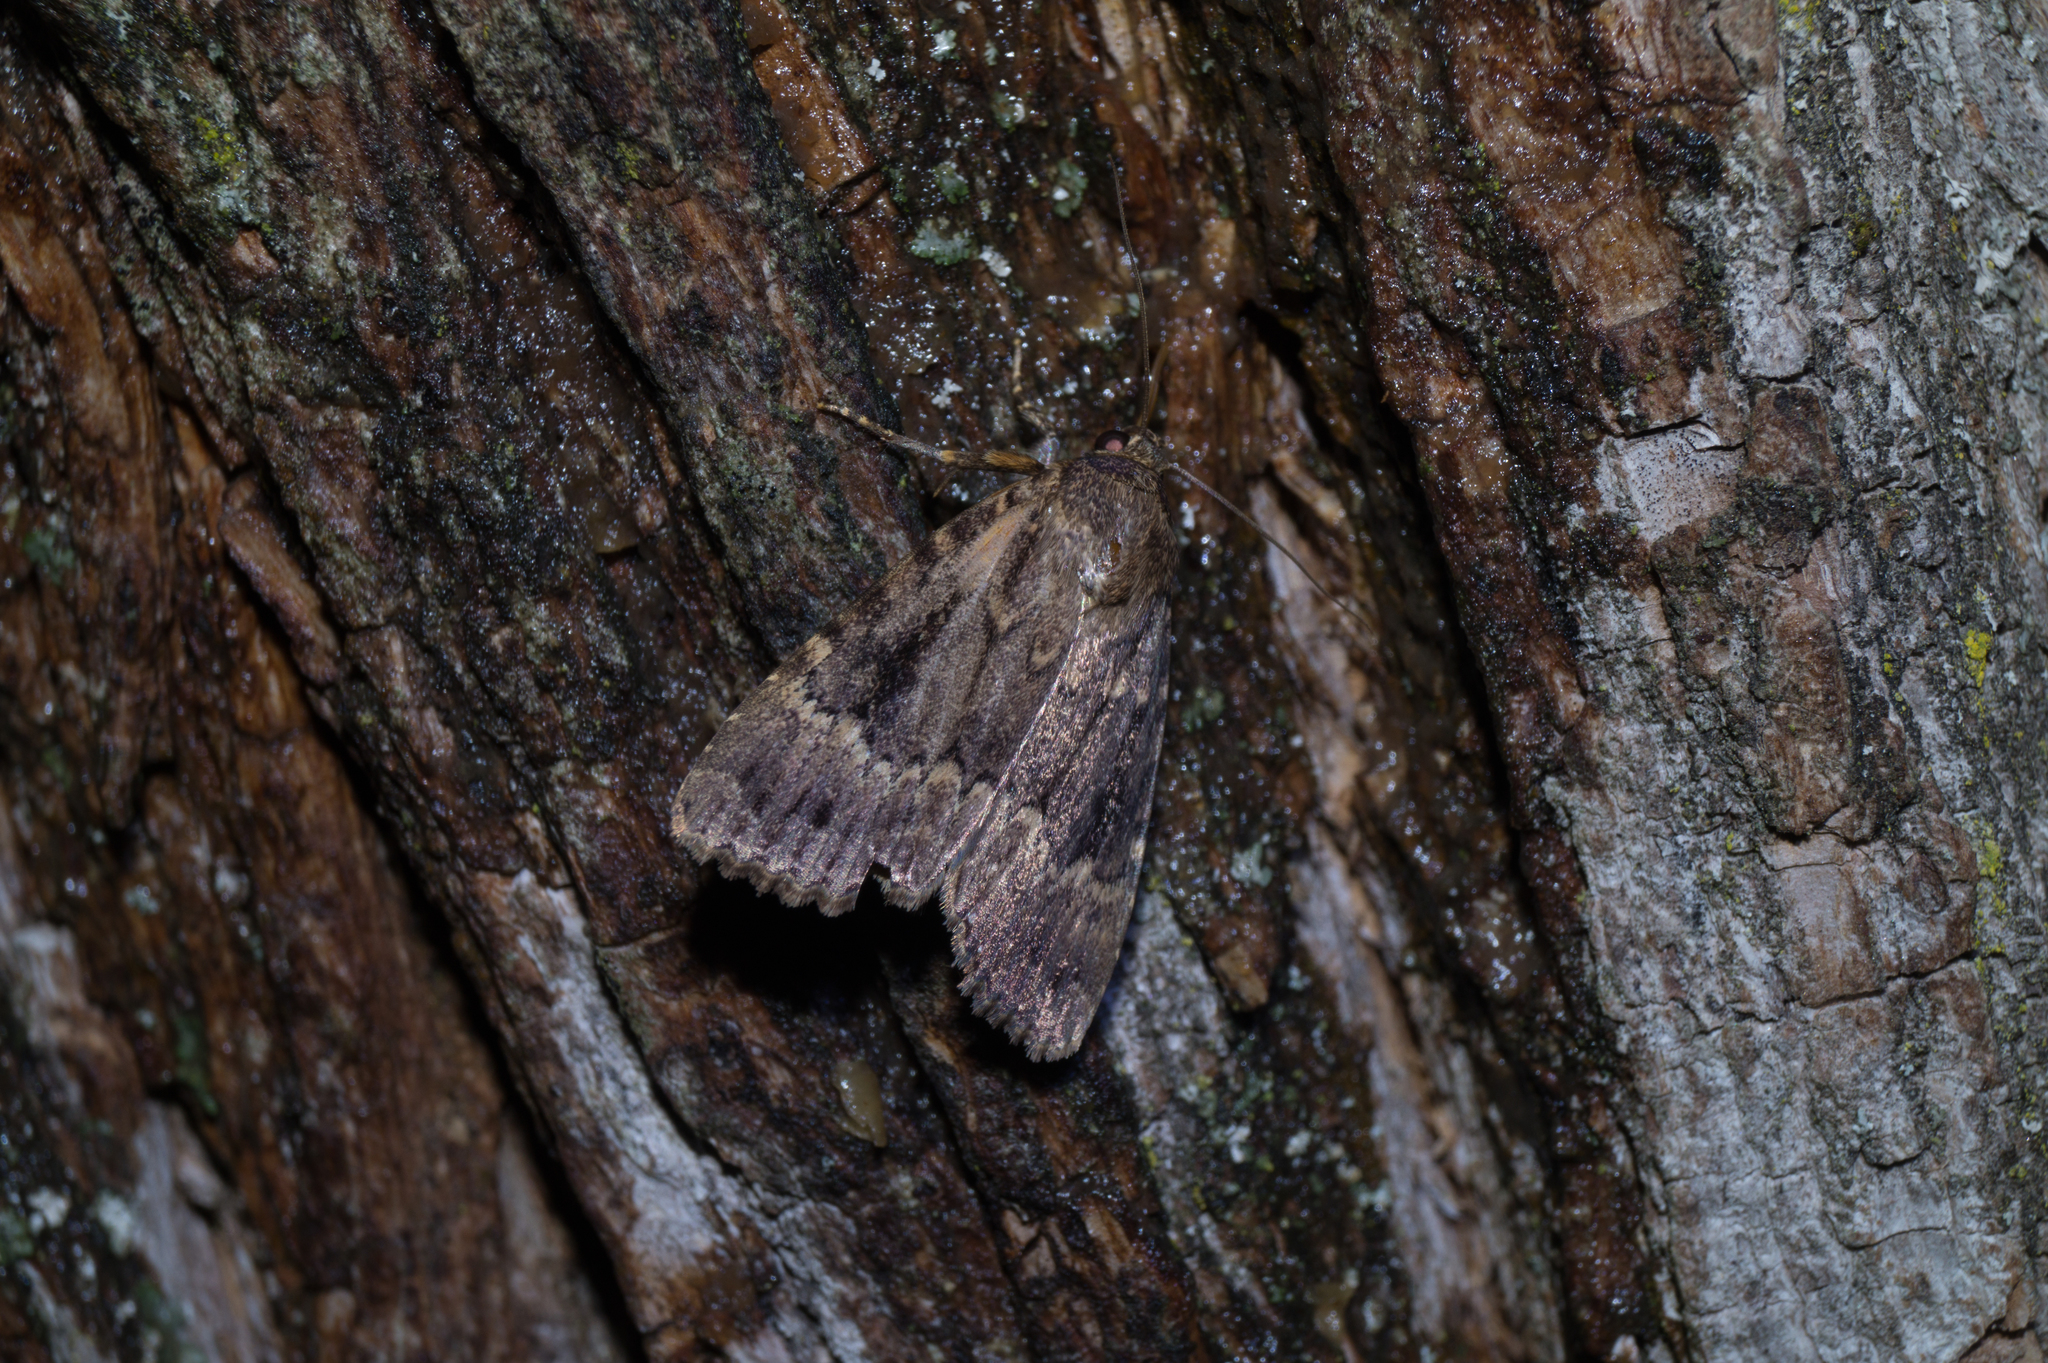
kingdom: Animalia
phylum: Arthropoda
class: Insecta
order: Lepidoptera
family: Noctuidae
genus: Amphipyra
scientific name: Amphipyra pyramidea
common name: Copper underwing
